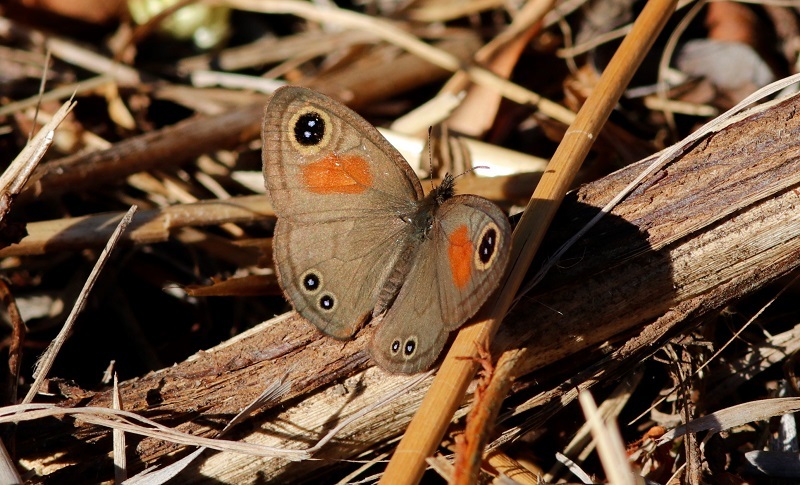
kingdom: Animalia
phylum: Arthropoda
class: Insecta
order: Lepidoptera
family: Nymphalidae
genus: Cassionympha
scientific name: Cassionympha cassius
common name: Rainforest brown
